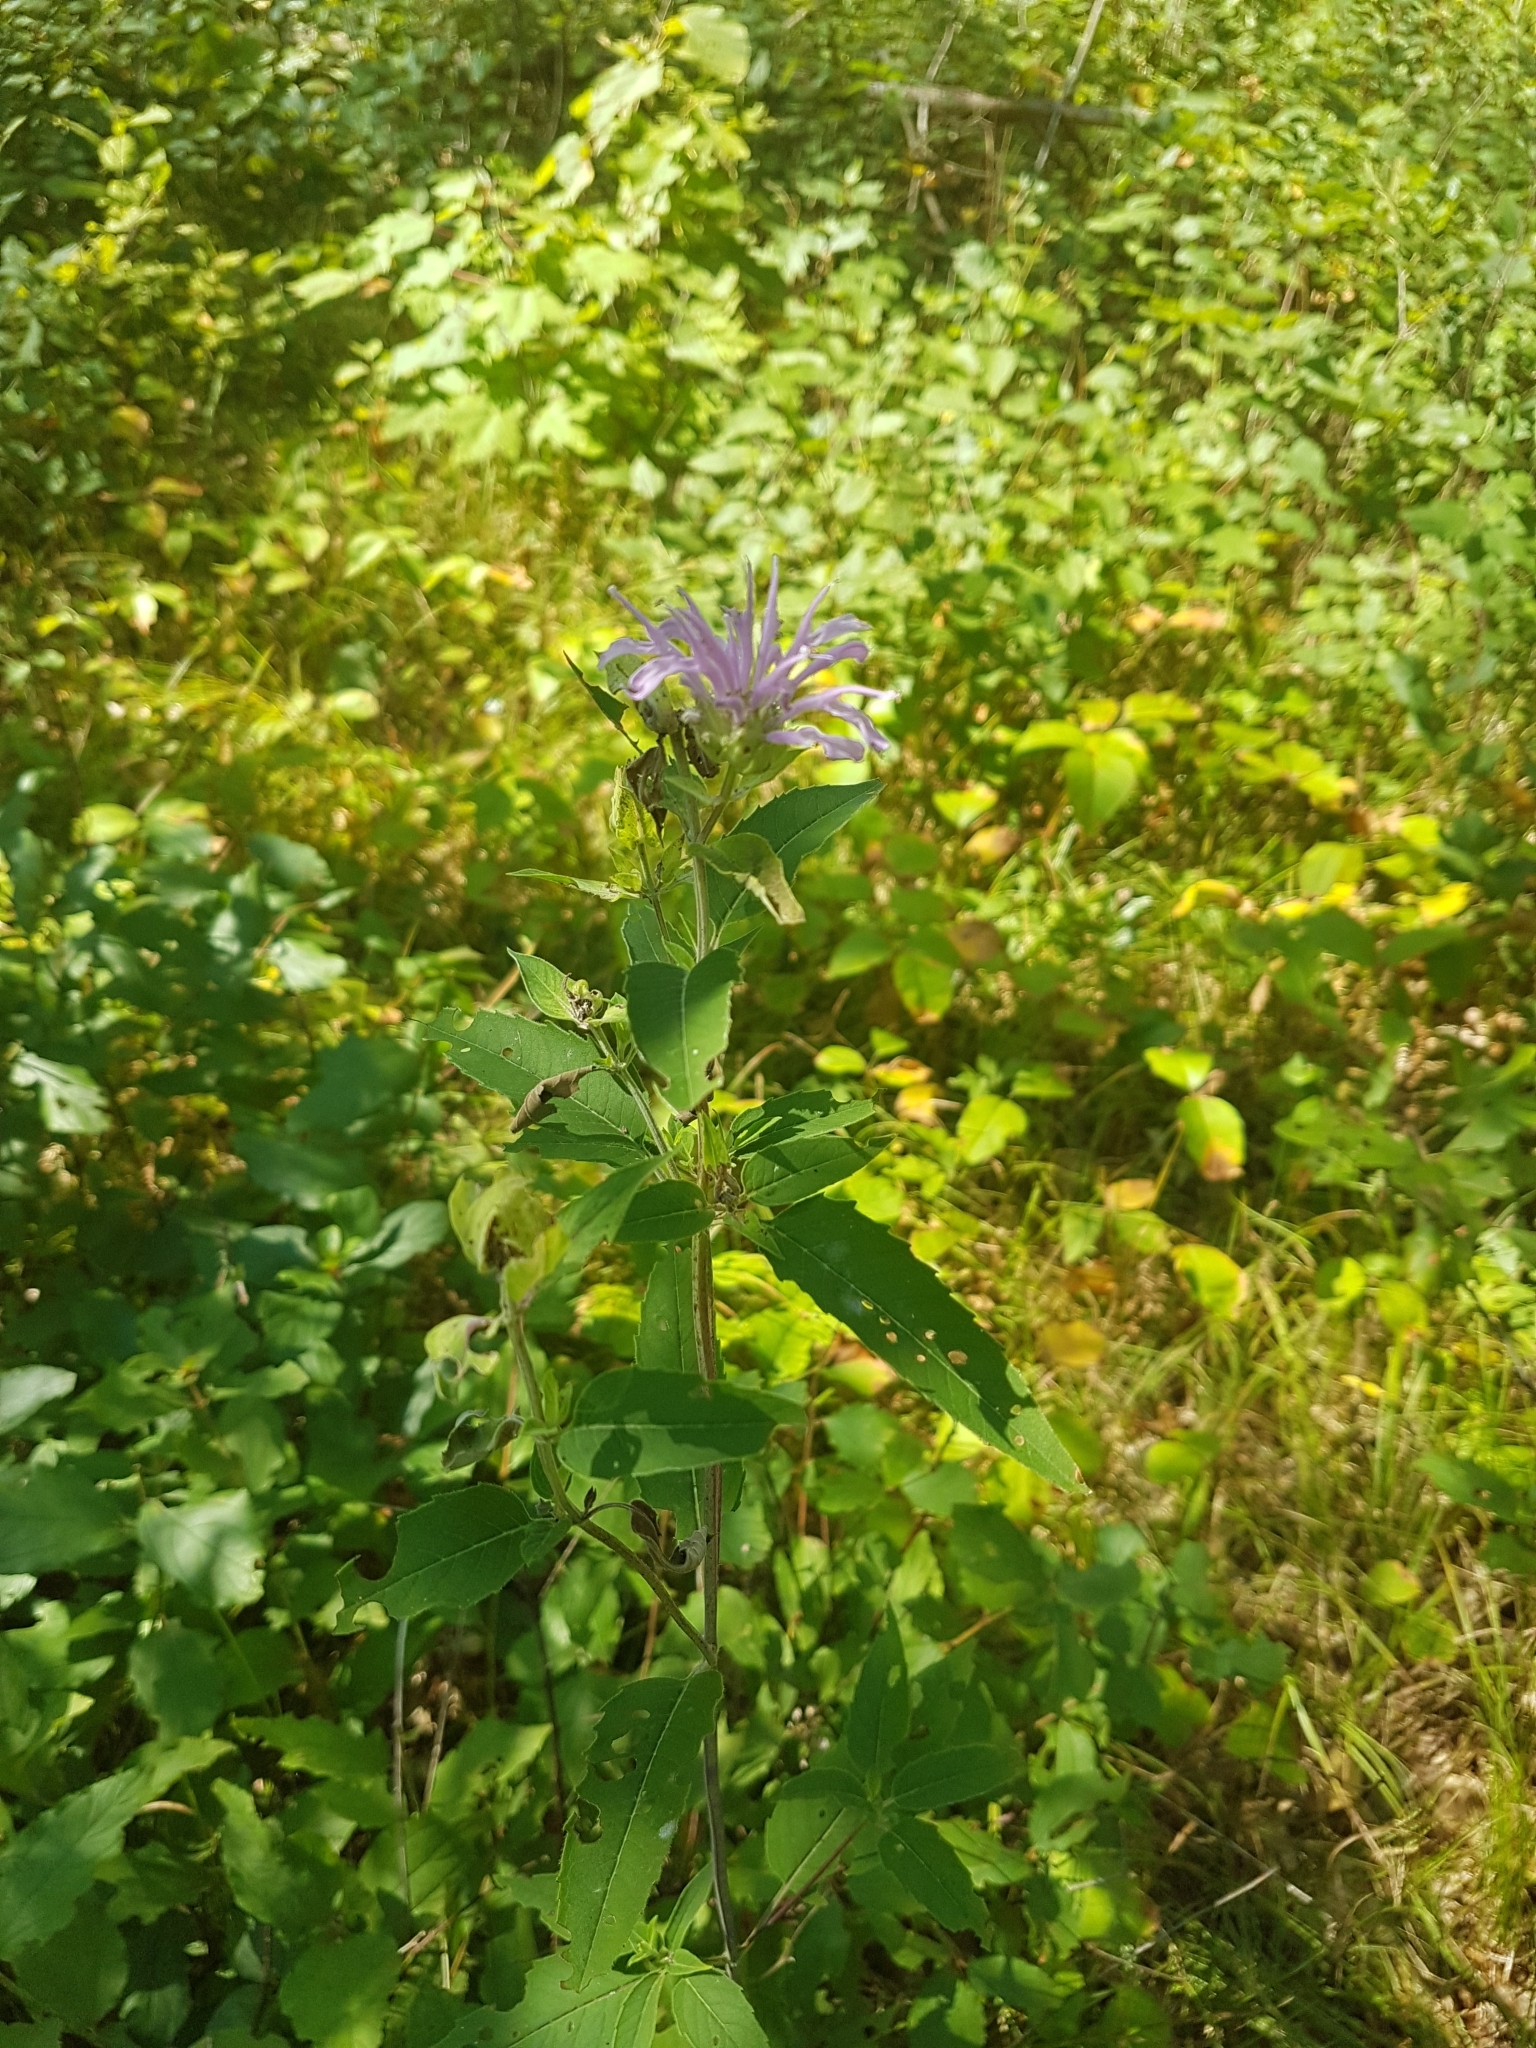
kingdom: Plantae
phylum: Tracheophyta
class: Magnoliopsida
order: Lamiales
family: Lamiaceae
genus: Monarda
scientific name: Monarda fistulosa
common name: Purple beebalm
